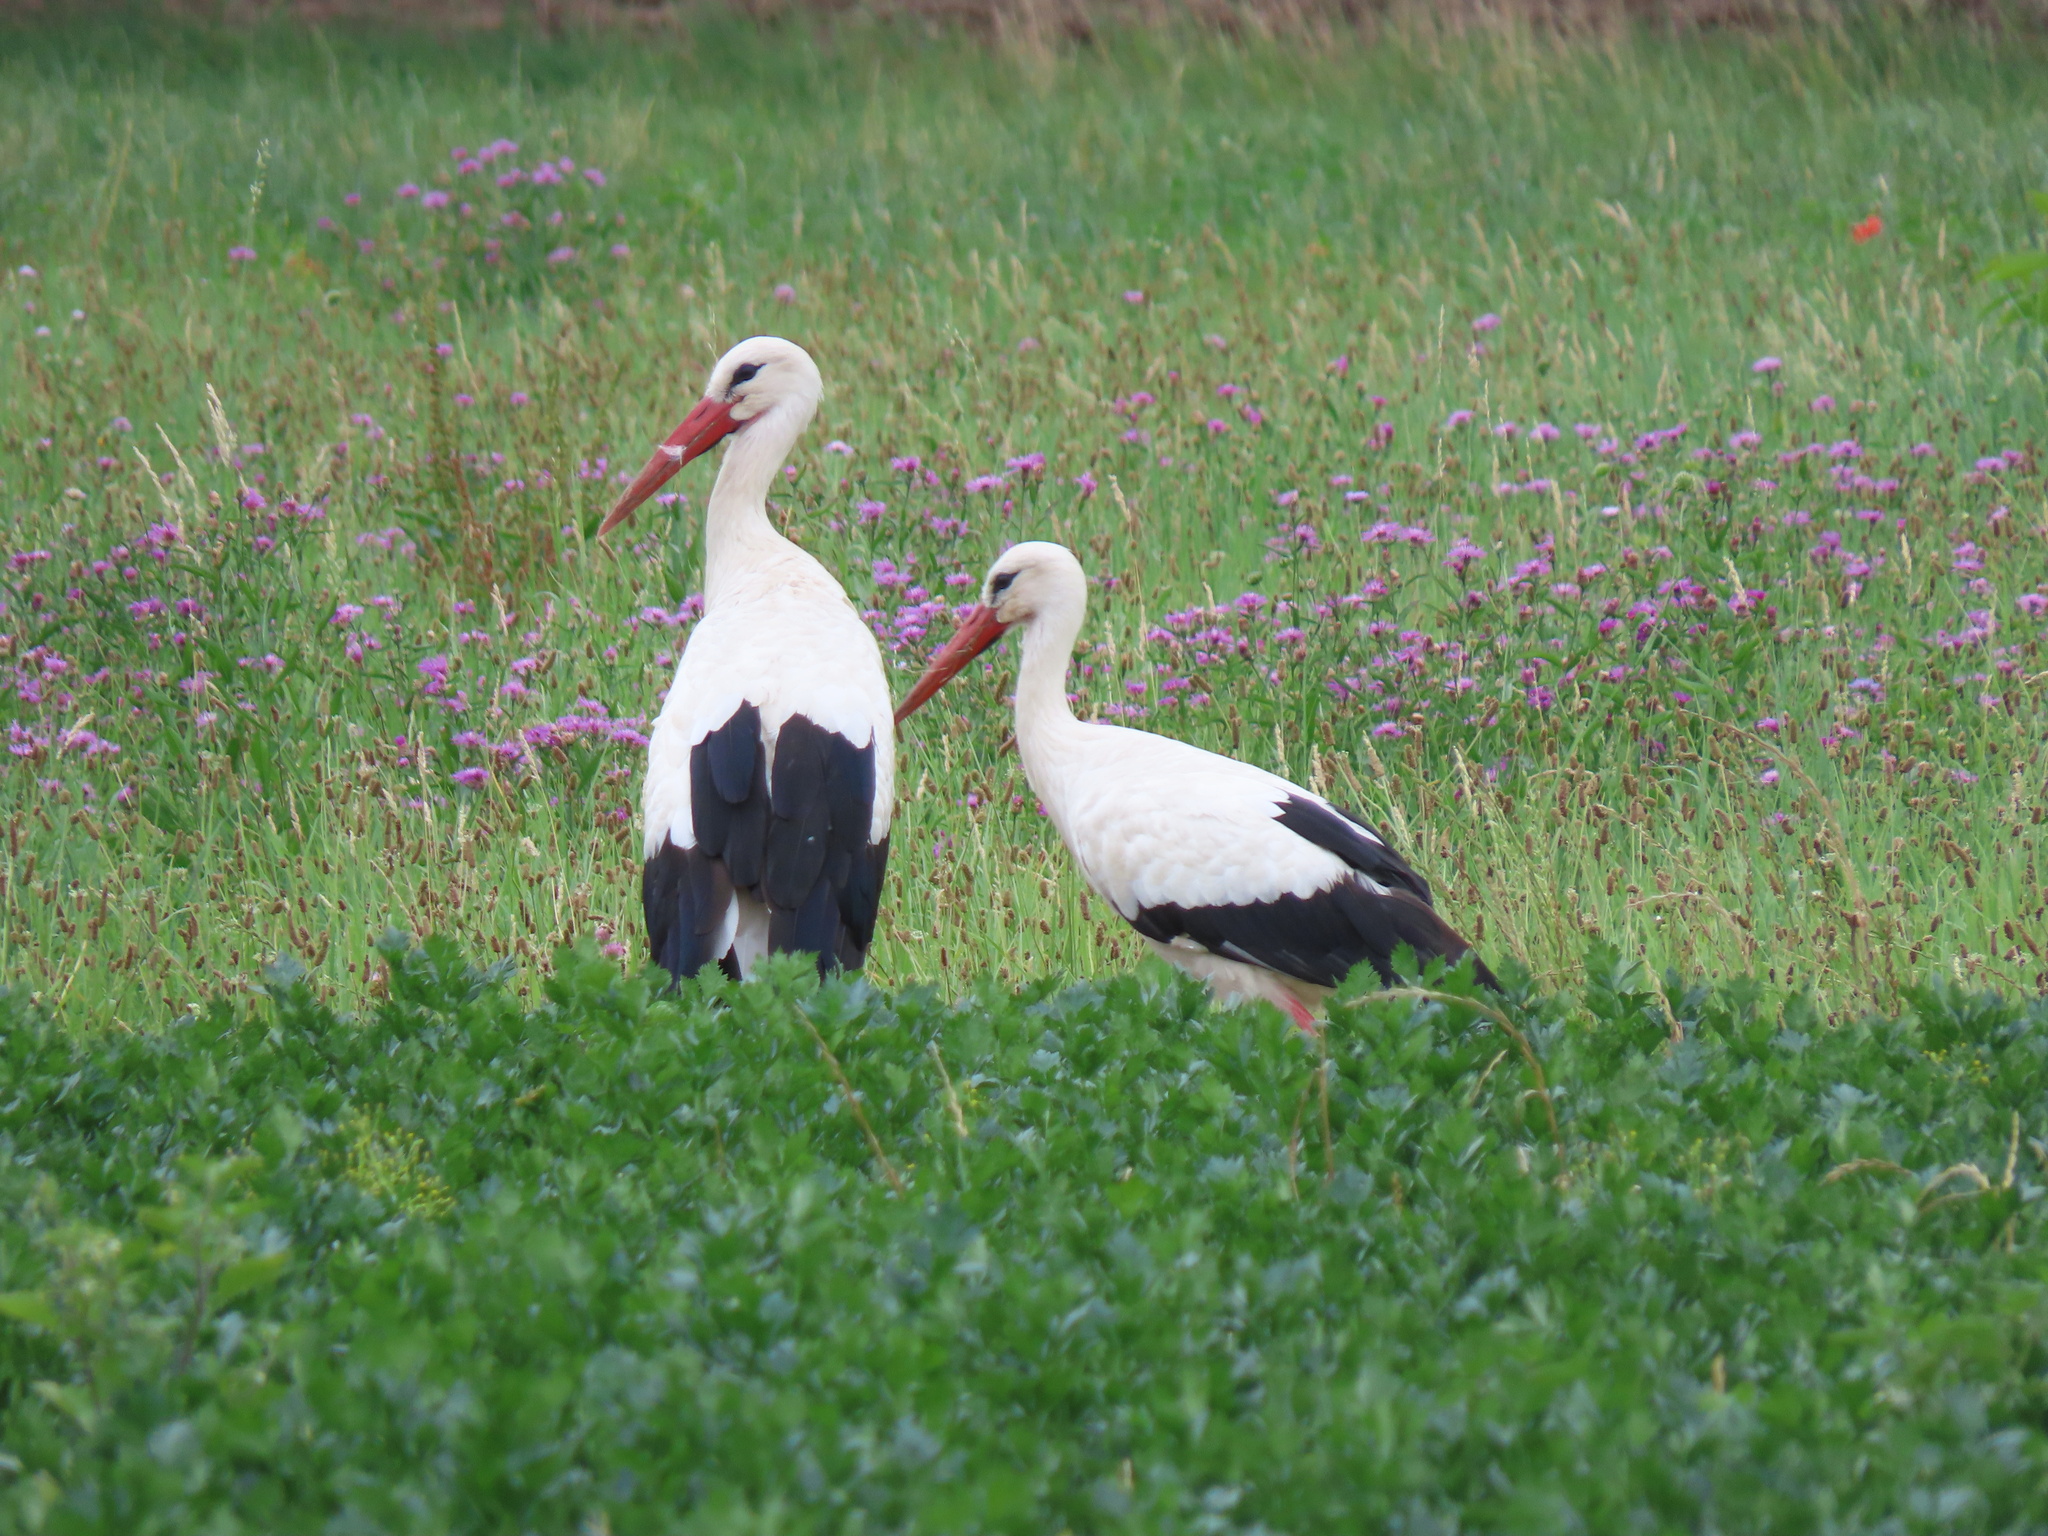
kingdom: Animalia
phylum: Chordata
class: Aves
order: Ciconiiformes
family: Ciconiidae
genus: Ciconia
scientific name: Ciconia ciconia
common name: White stork
